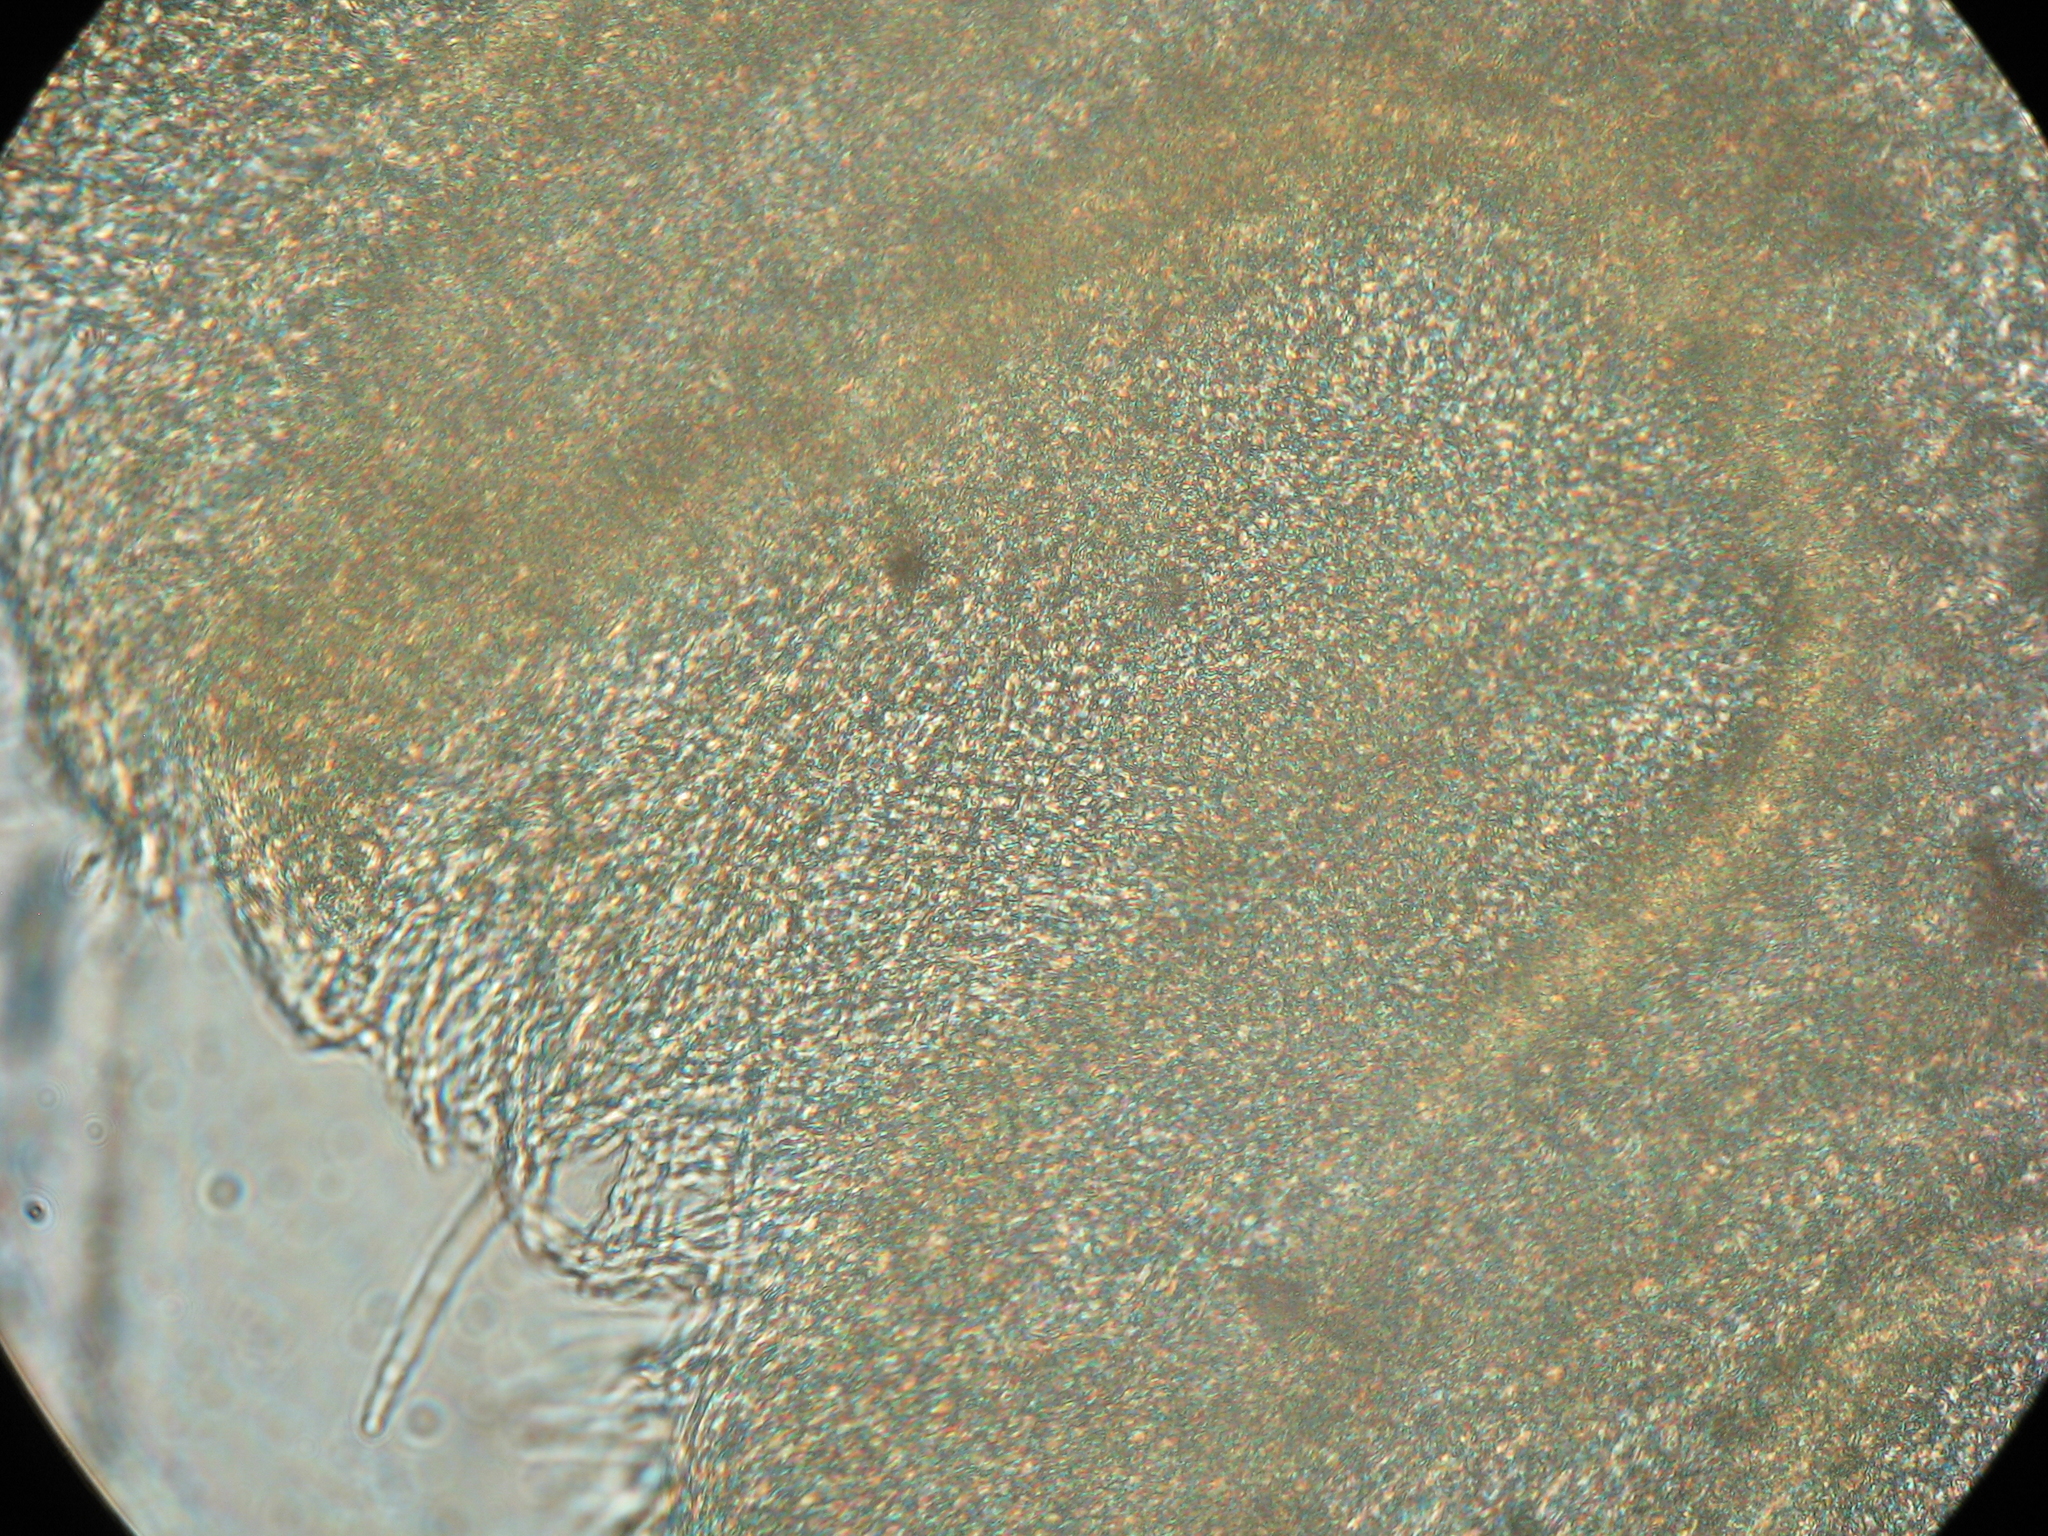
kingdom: Fungi
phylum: Basidiomycota
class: Agaricomycetes
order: Polyporales
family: Irpicaceae
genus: Gloeoporus
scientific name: Gloeoporus phlebophorus
